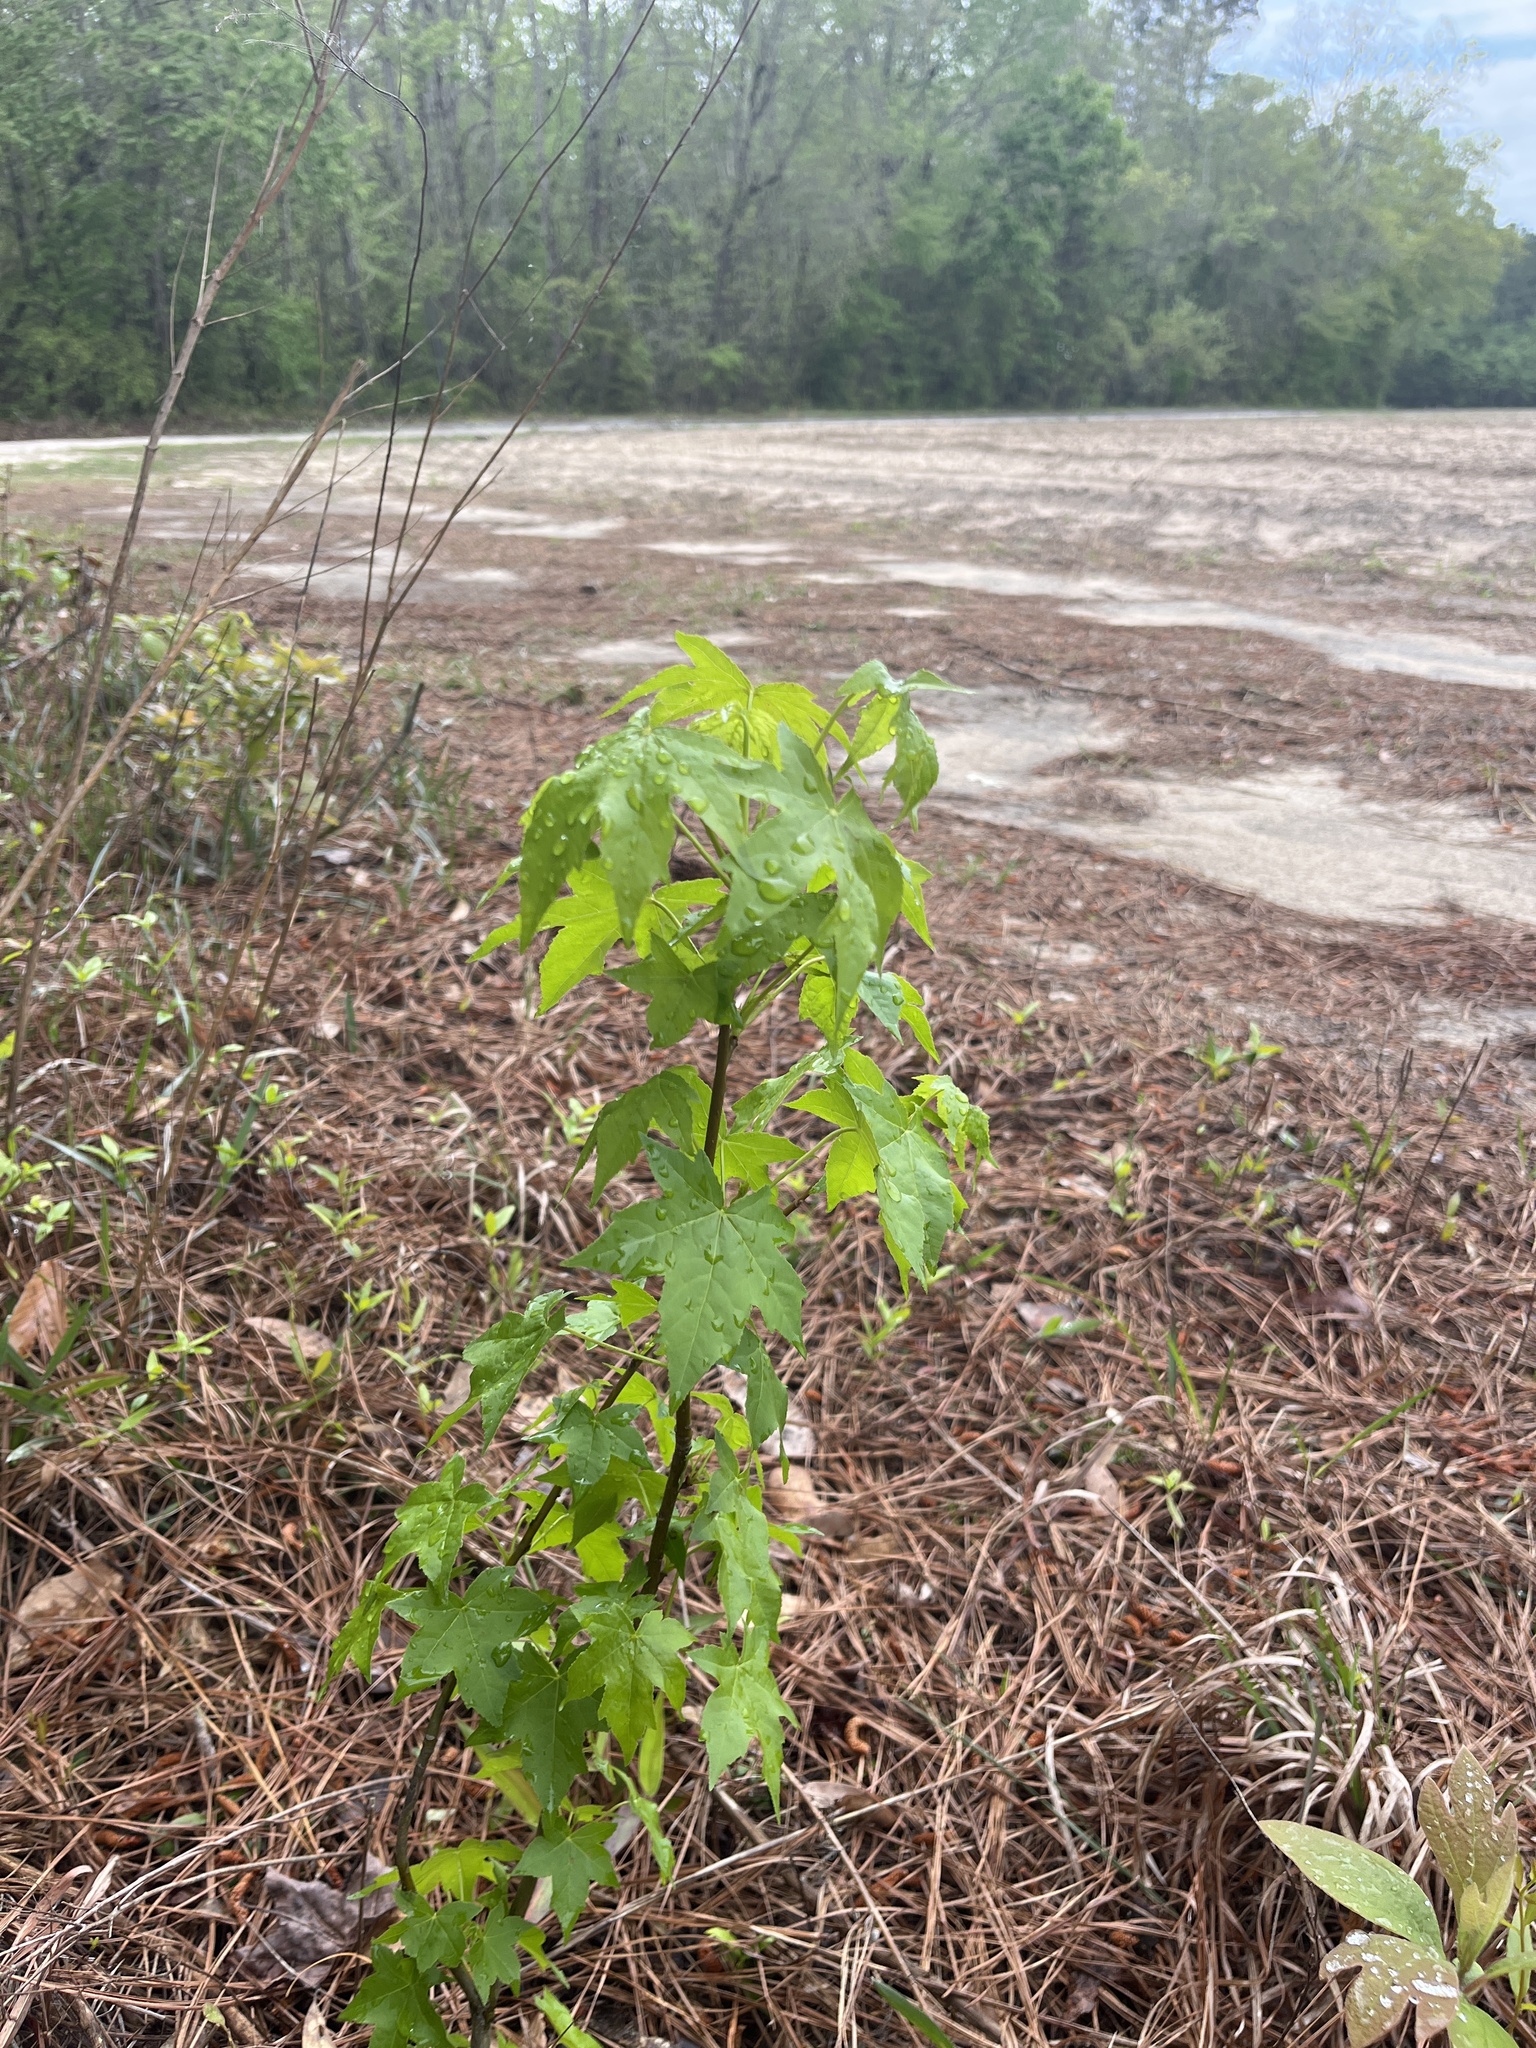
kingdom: Plantae
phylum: Tracheophyta
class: Magnoliopsida
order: Saxifragales
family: Altingiaceae
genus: Liquidambar
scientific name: Liquidambar styraciflua
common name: Sweet gum
